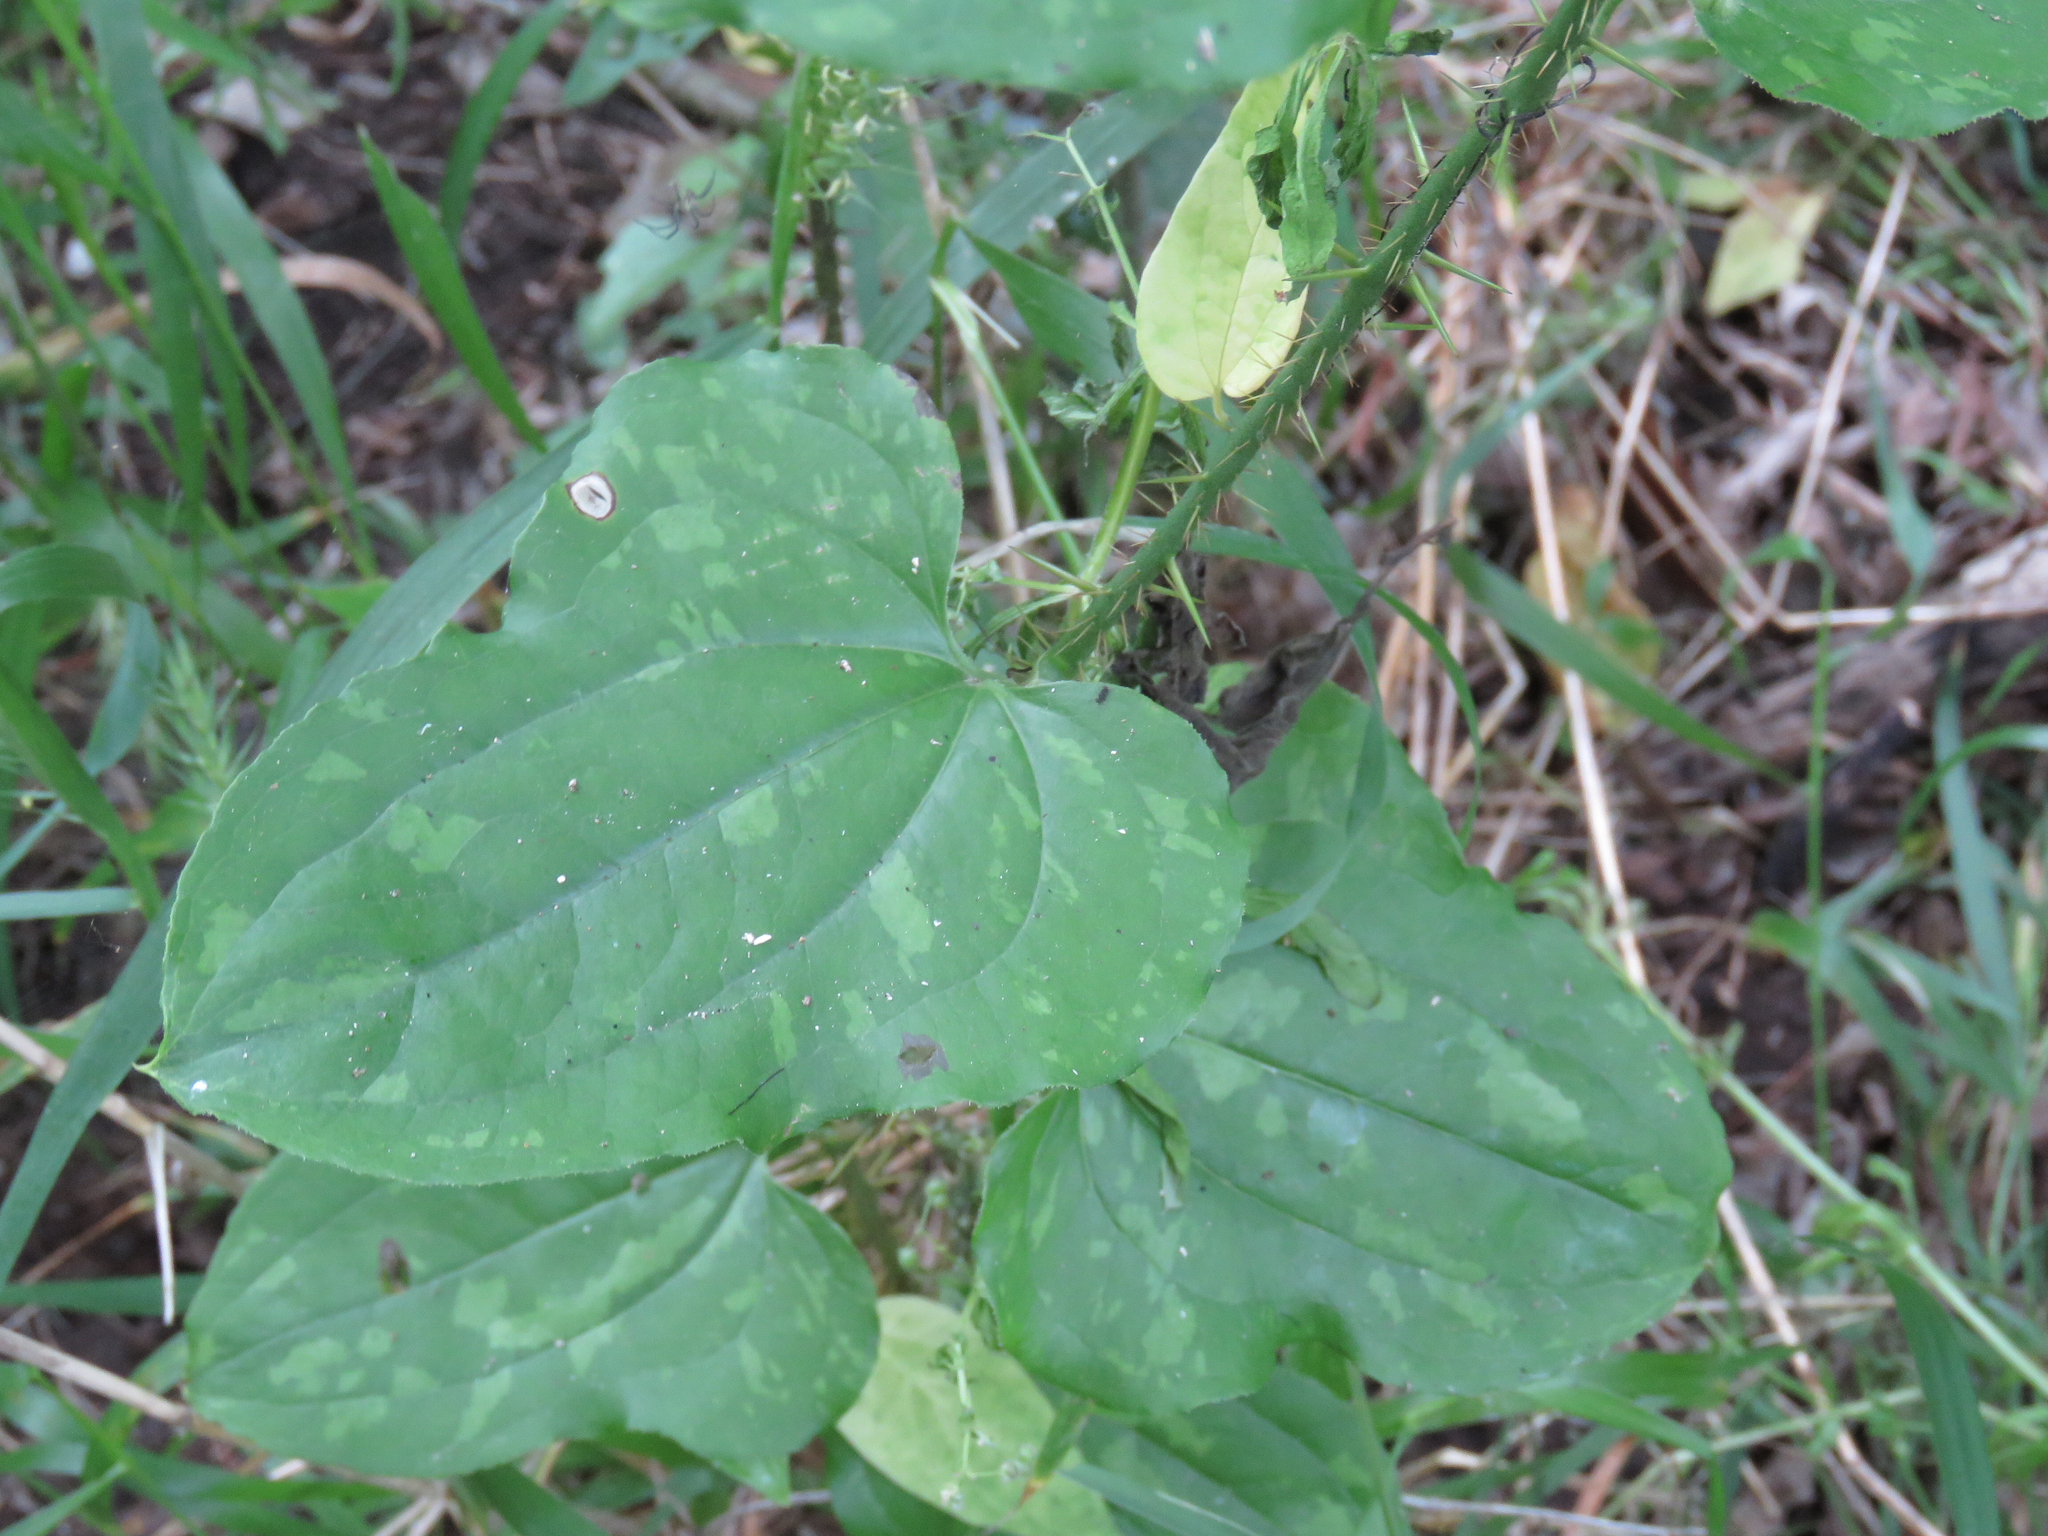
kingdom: Plantae
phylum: Tracheophyta
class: Liliopsida
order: Liliales
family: Smilacaceae
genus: Smilax
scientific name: Smilax tamnoides
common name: Hellfetter
